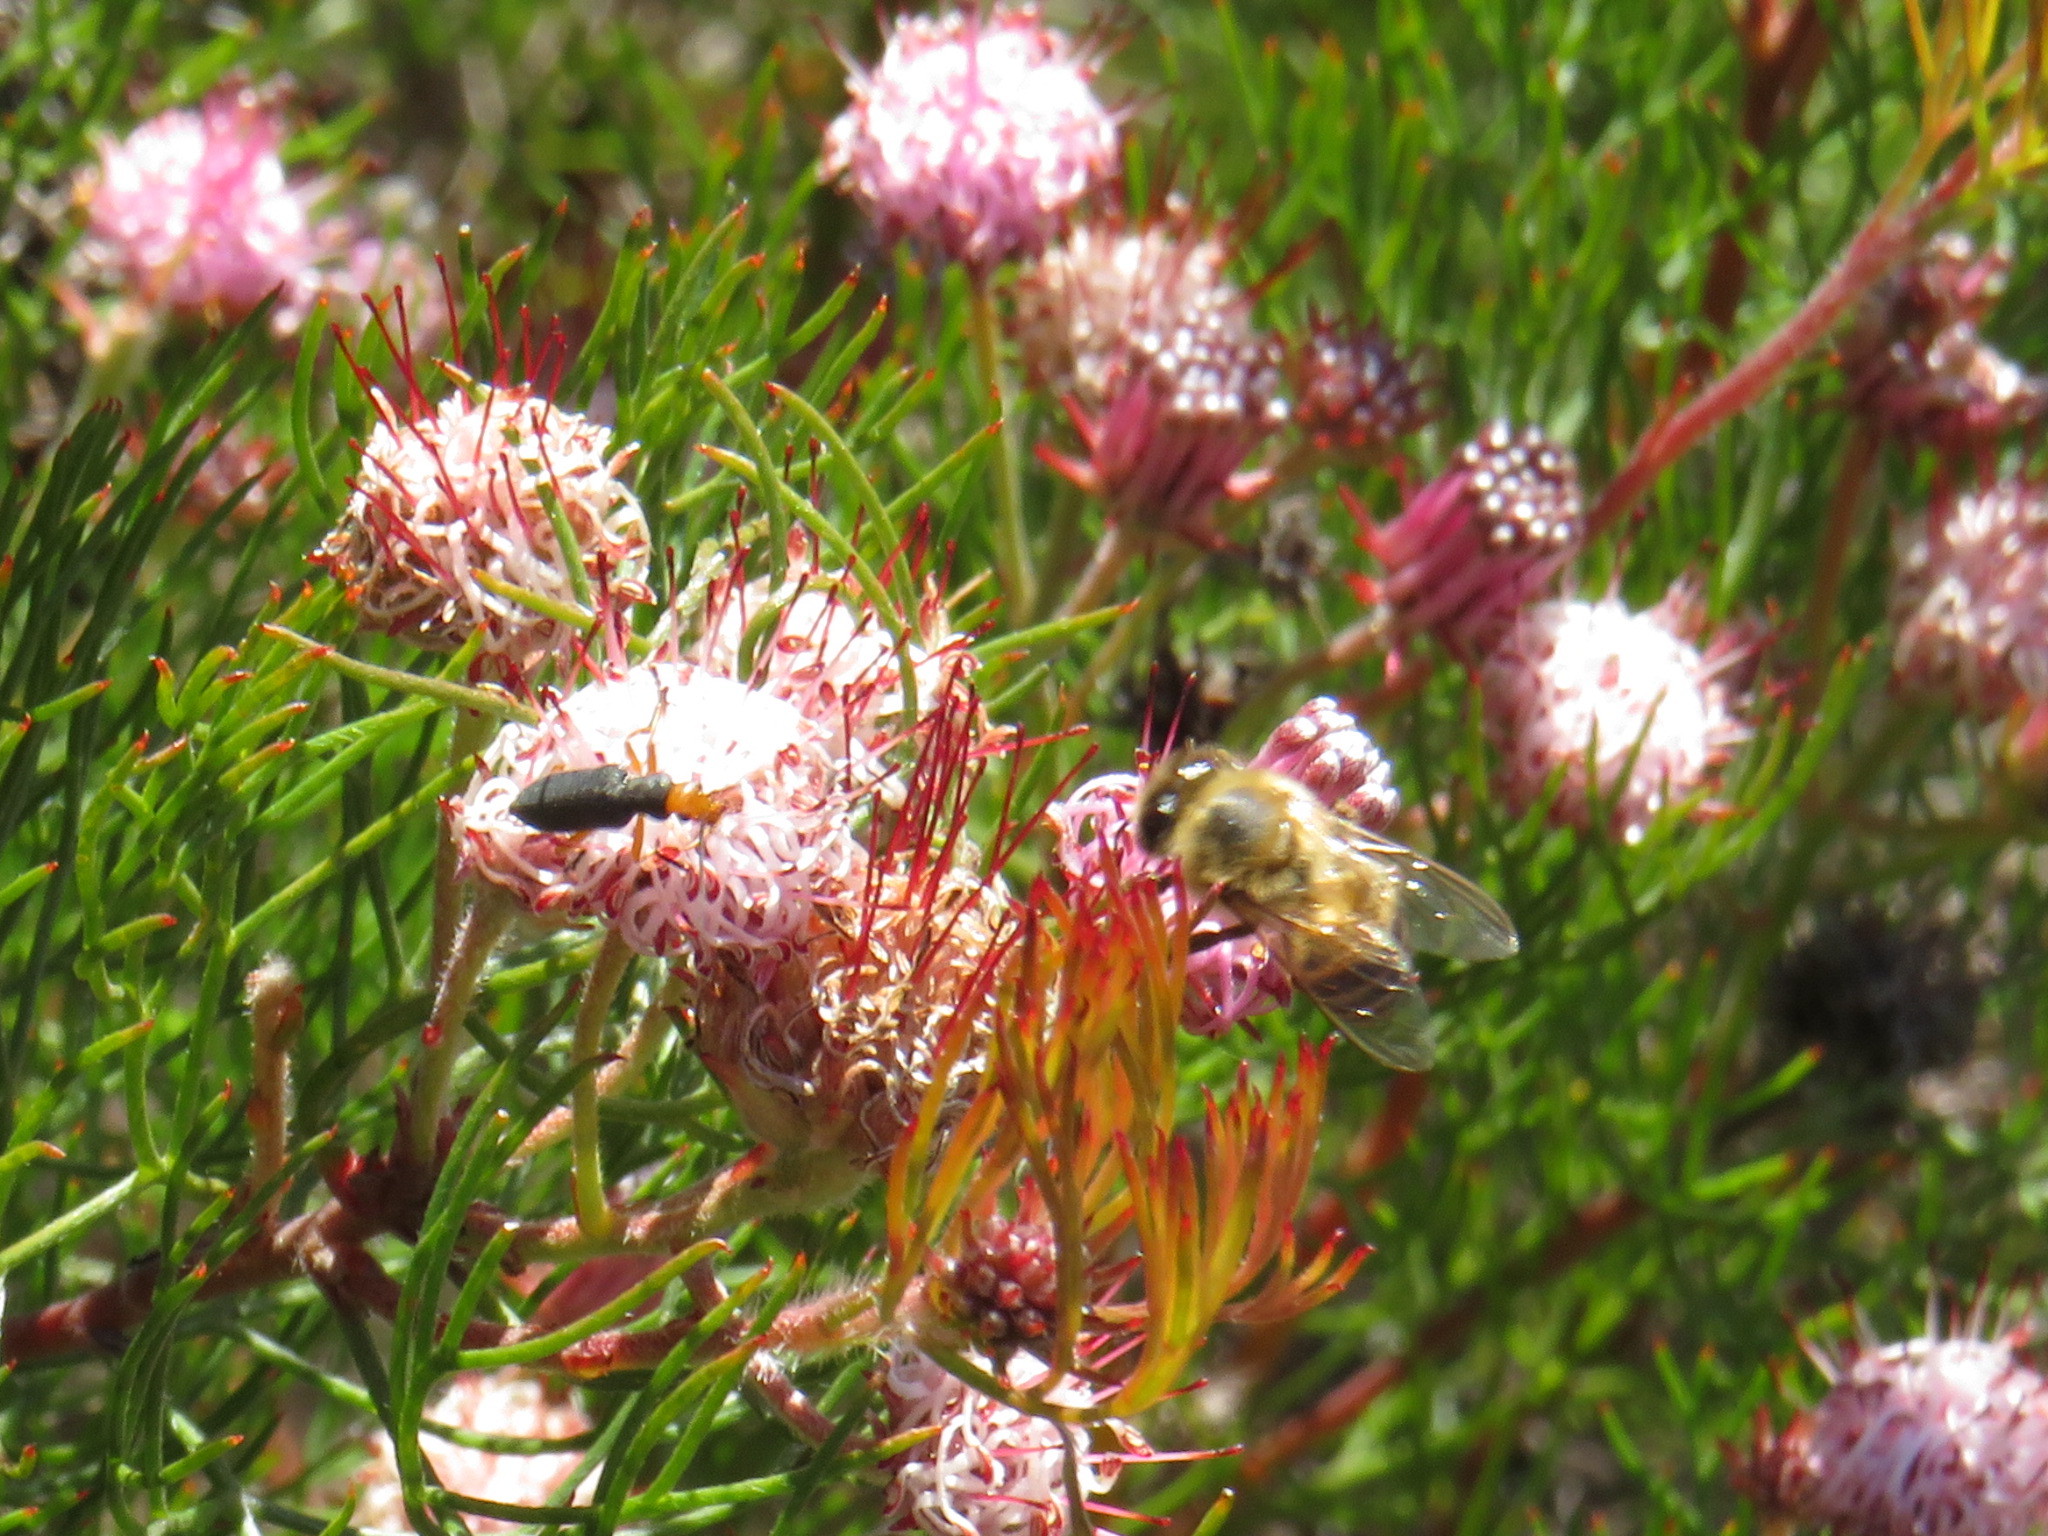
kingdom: Animalia
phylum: Arthropoda
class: Insecta
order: Coleoptera
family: Oedemeridae
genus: Melananthia
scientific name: Melananthia
